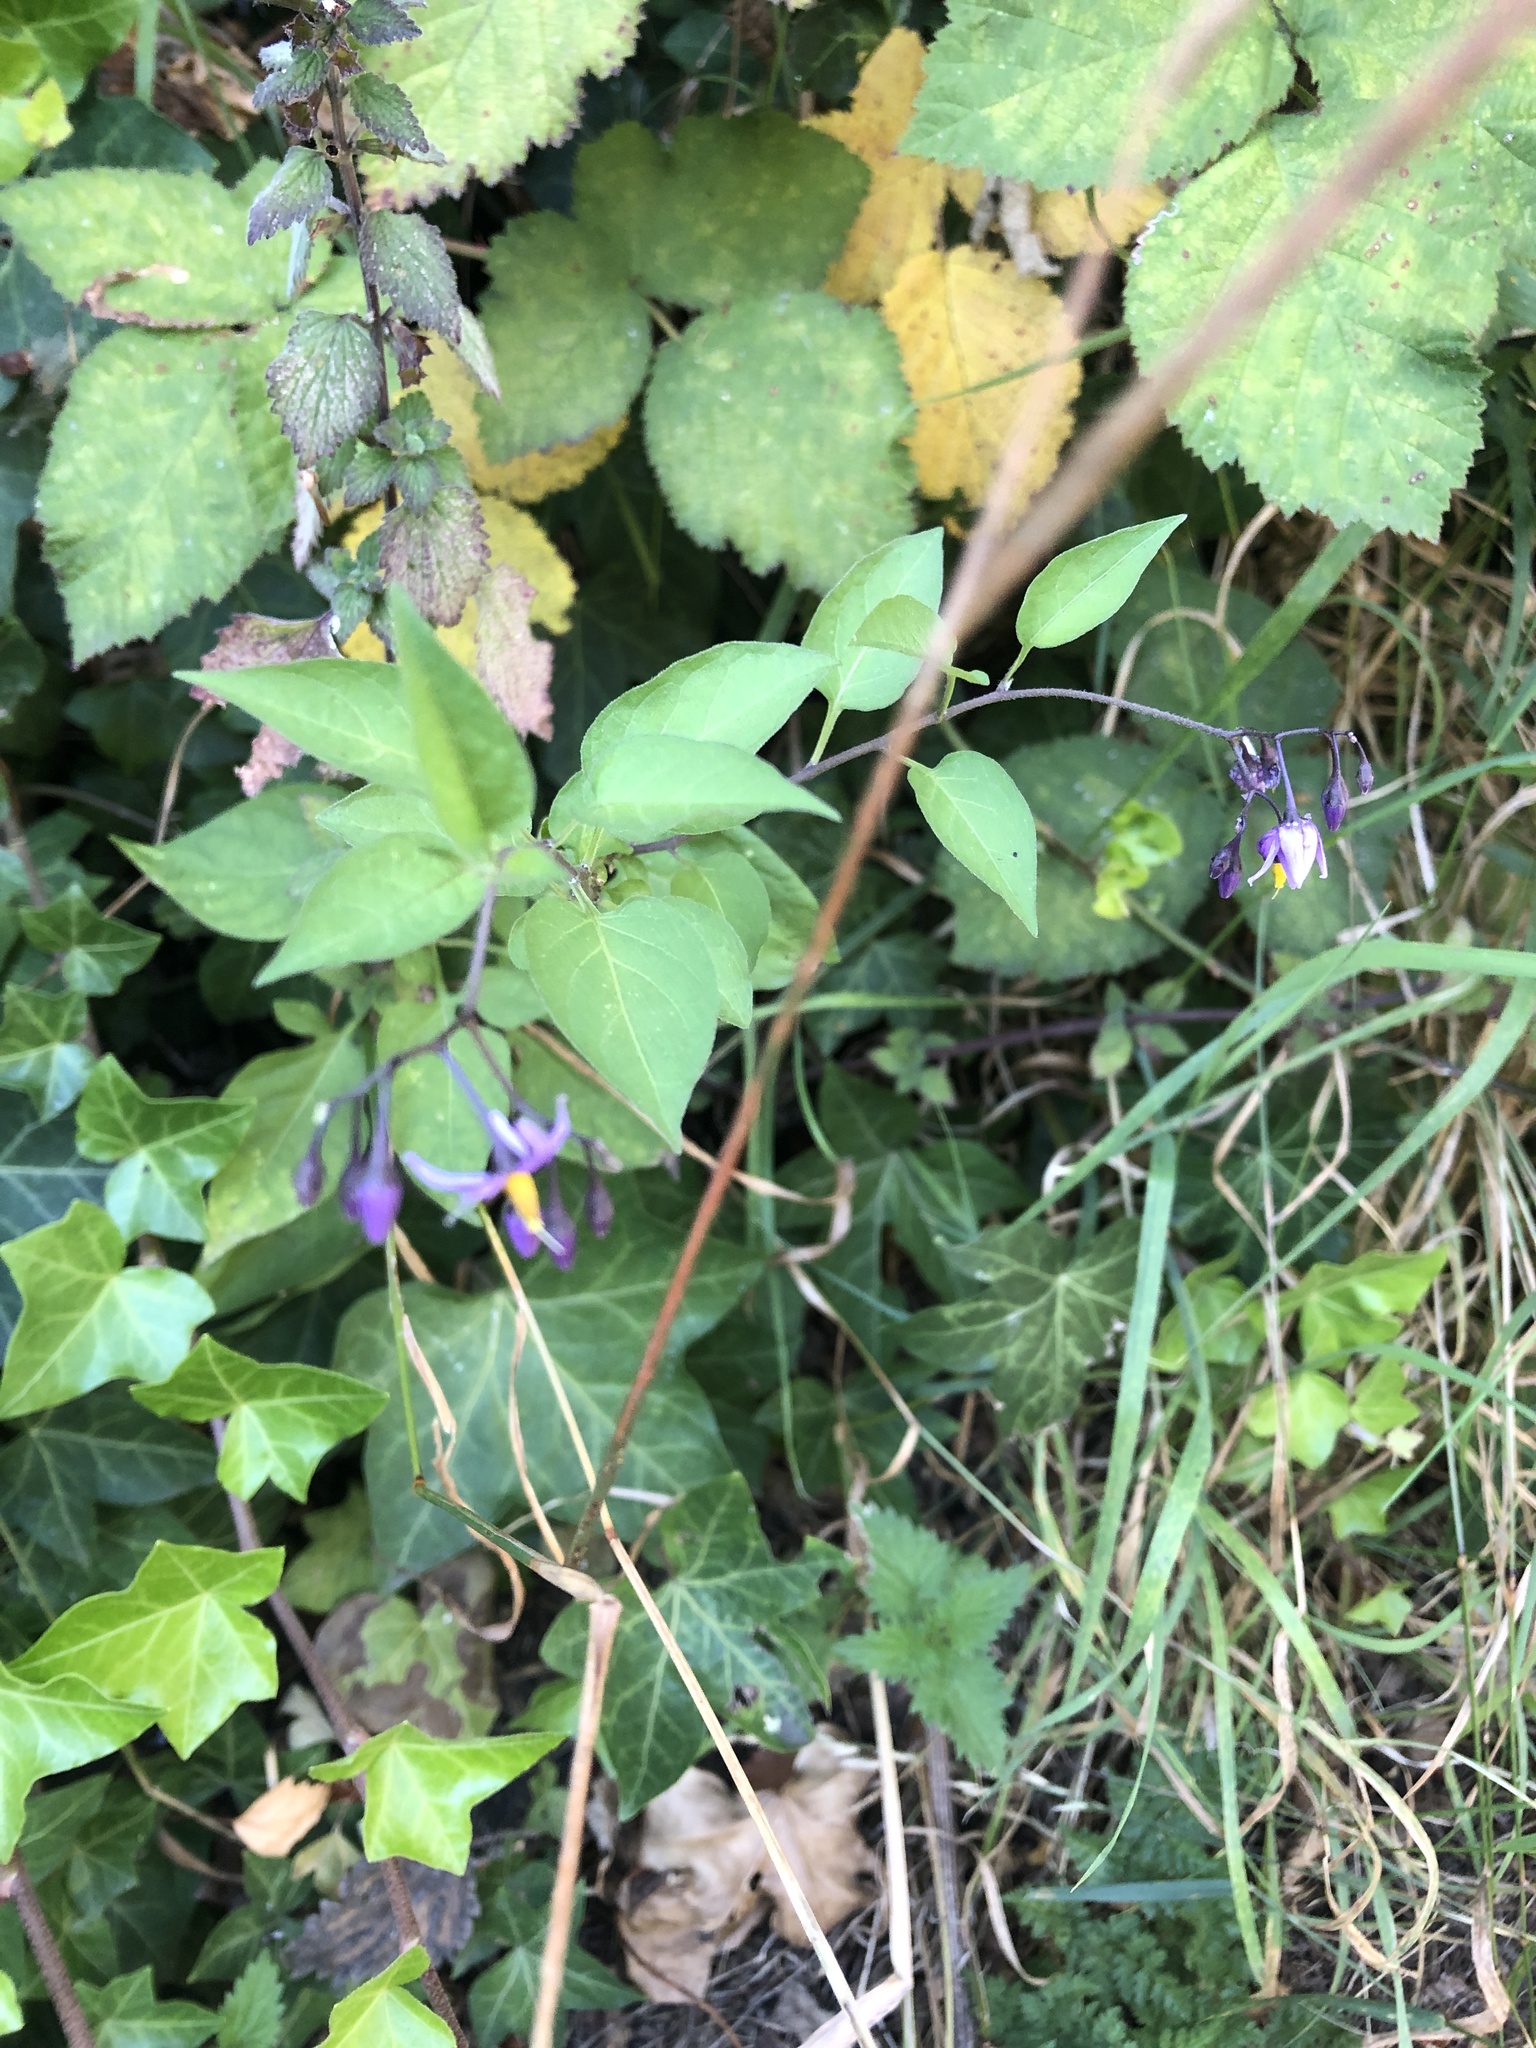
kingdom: Plantae
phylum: Tracheophyta
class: Magnoliopsida
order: Solanales
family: Solanaceae
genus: Solanum
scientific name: Solanum dulcamara
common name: Climbing nightshade
